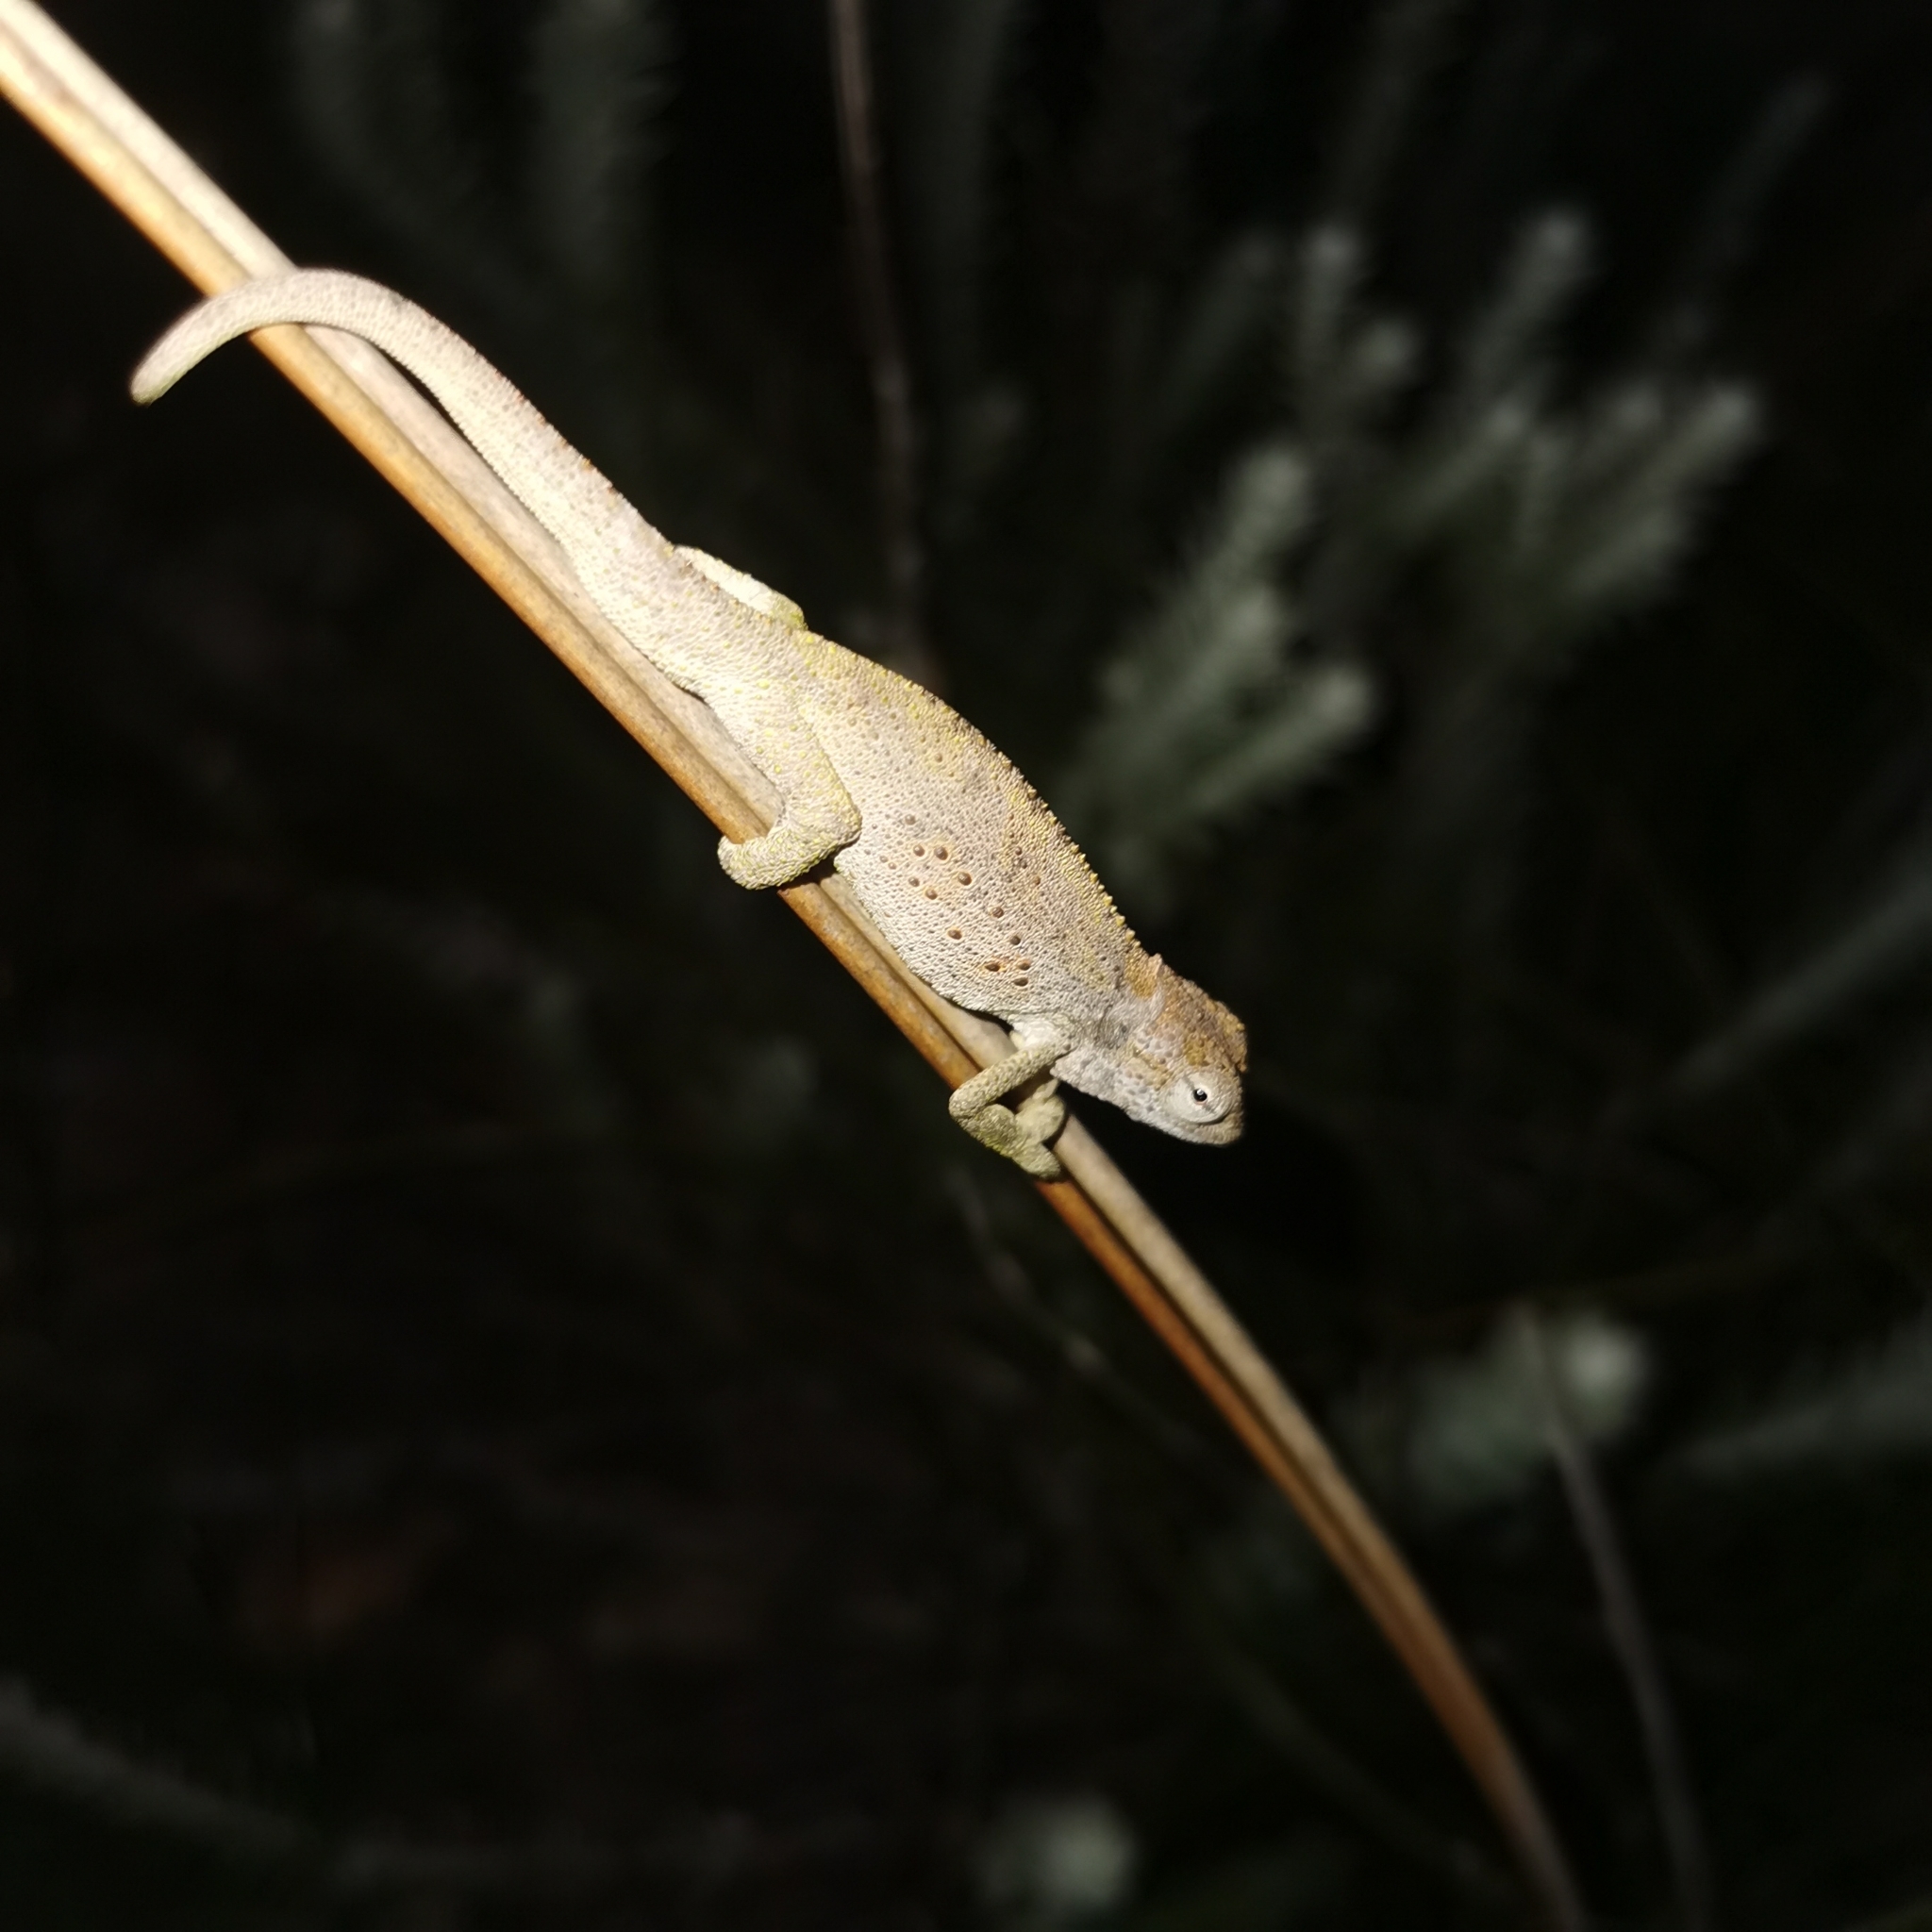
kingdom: Animalia
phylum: Chordata
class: Squamata
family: Chamaeleonidae
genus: Bradypodion
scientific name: Bradypodion barbatulum
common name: Beardless dwarf chameleon
